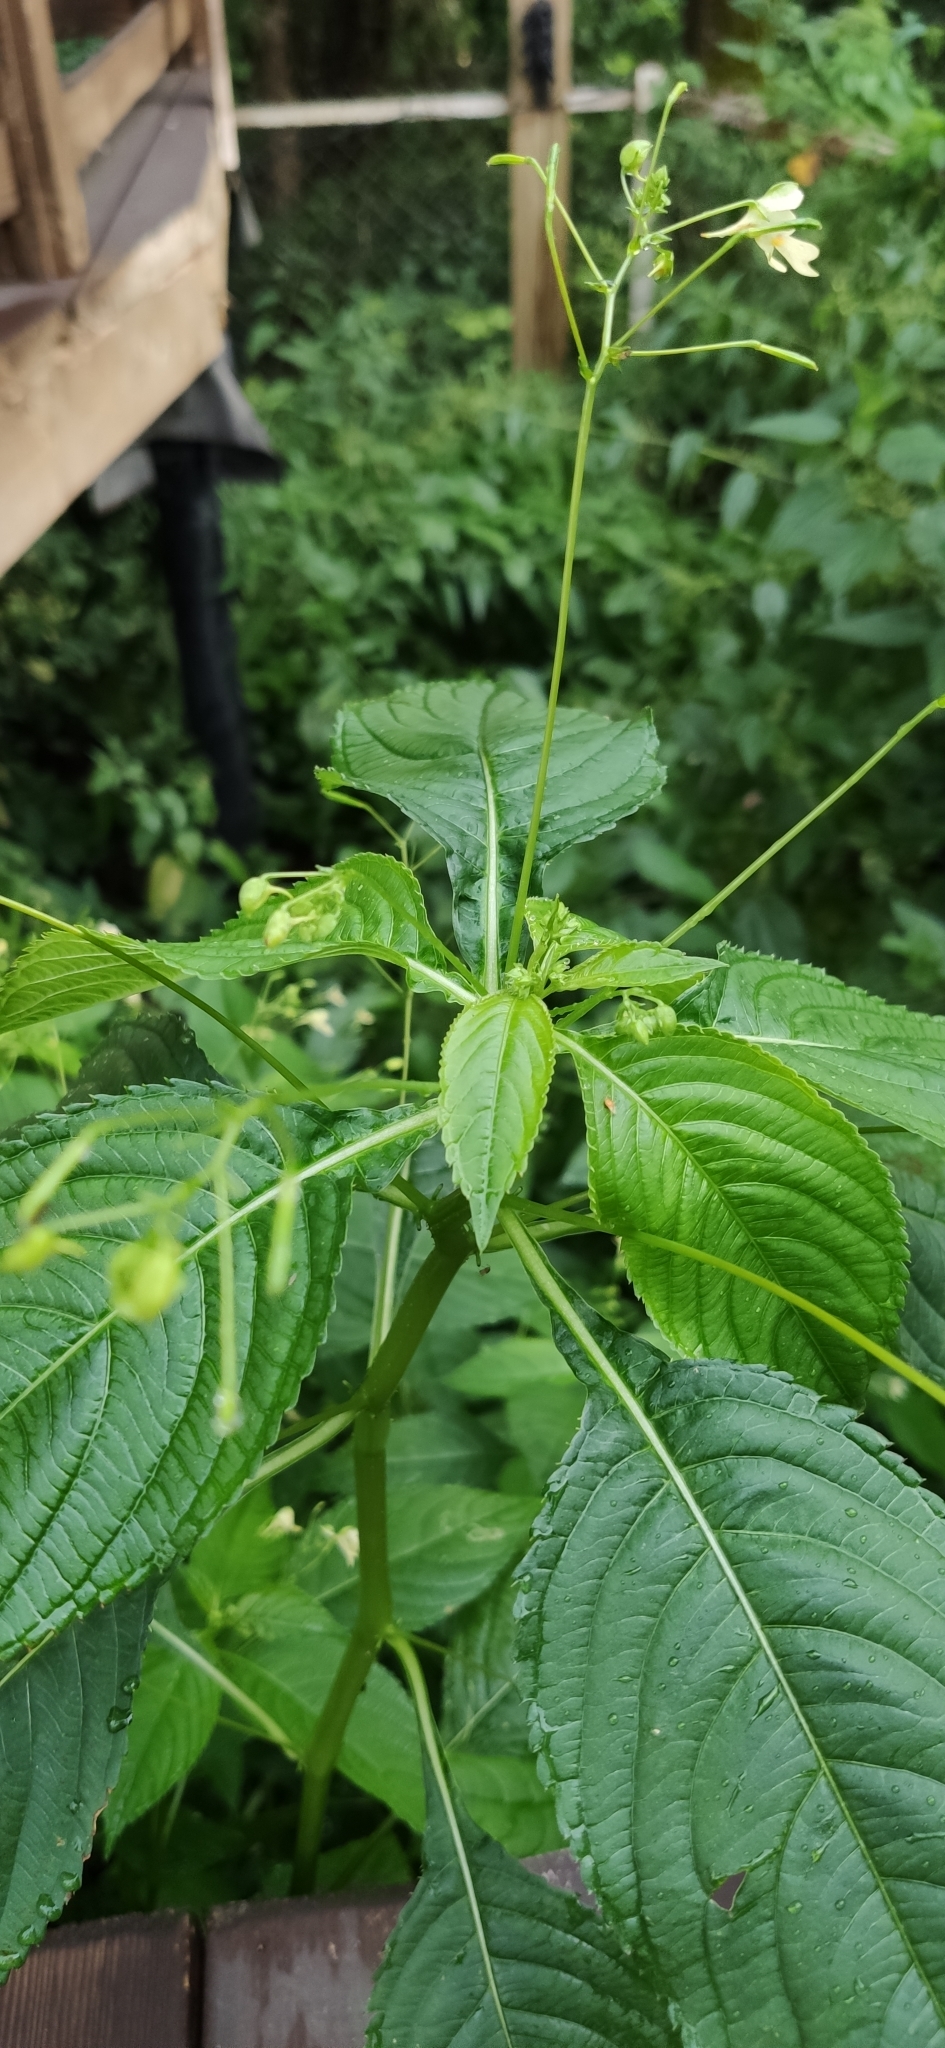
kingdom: Plantae
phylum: Tracheophyta
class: Magnoliopsida
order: Ericales
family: Balsaminaceae
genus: Impatiens
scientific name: Impatiens parviflora
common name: Small balsam
